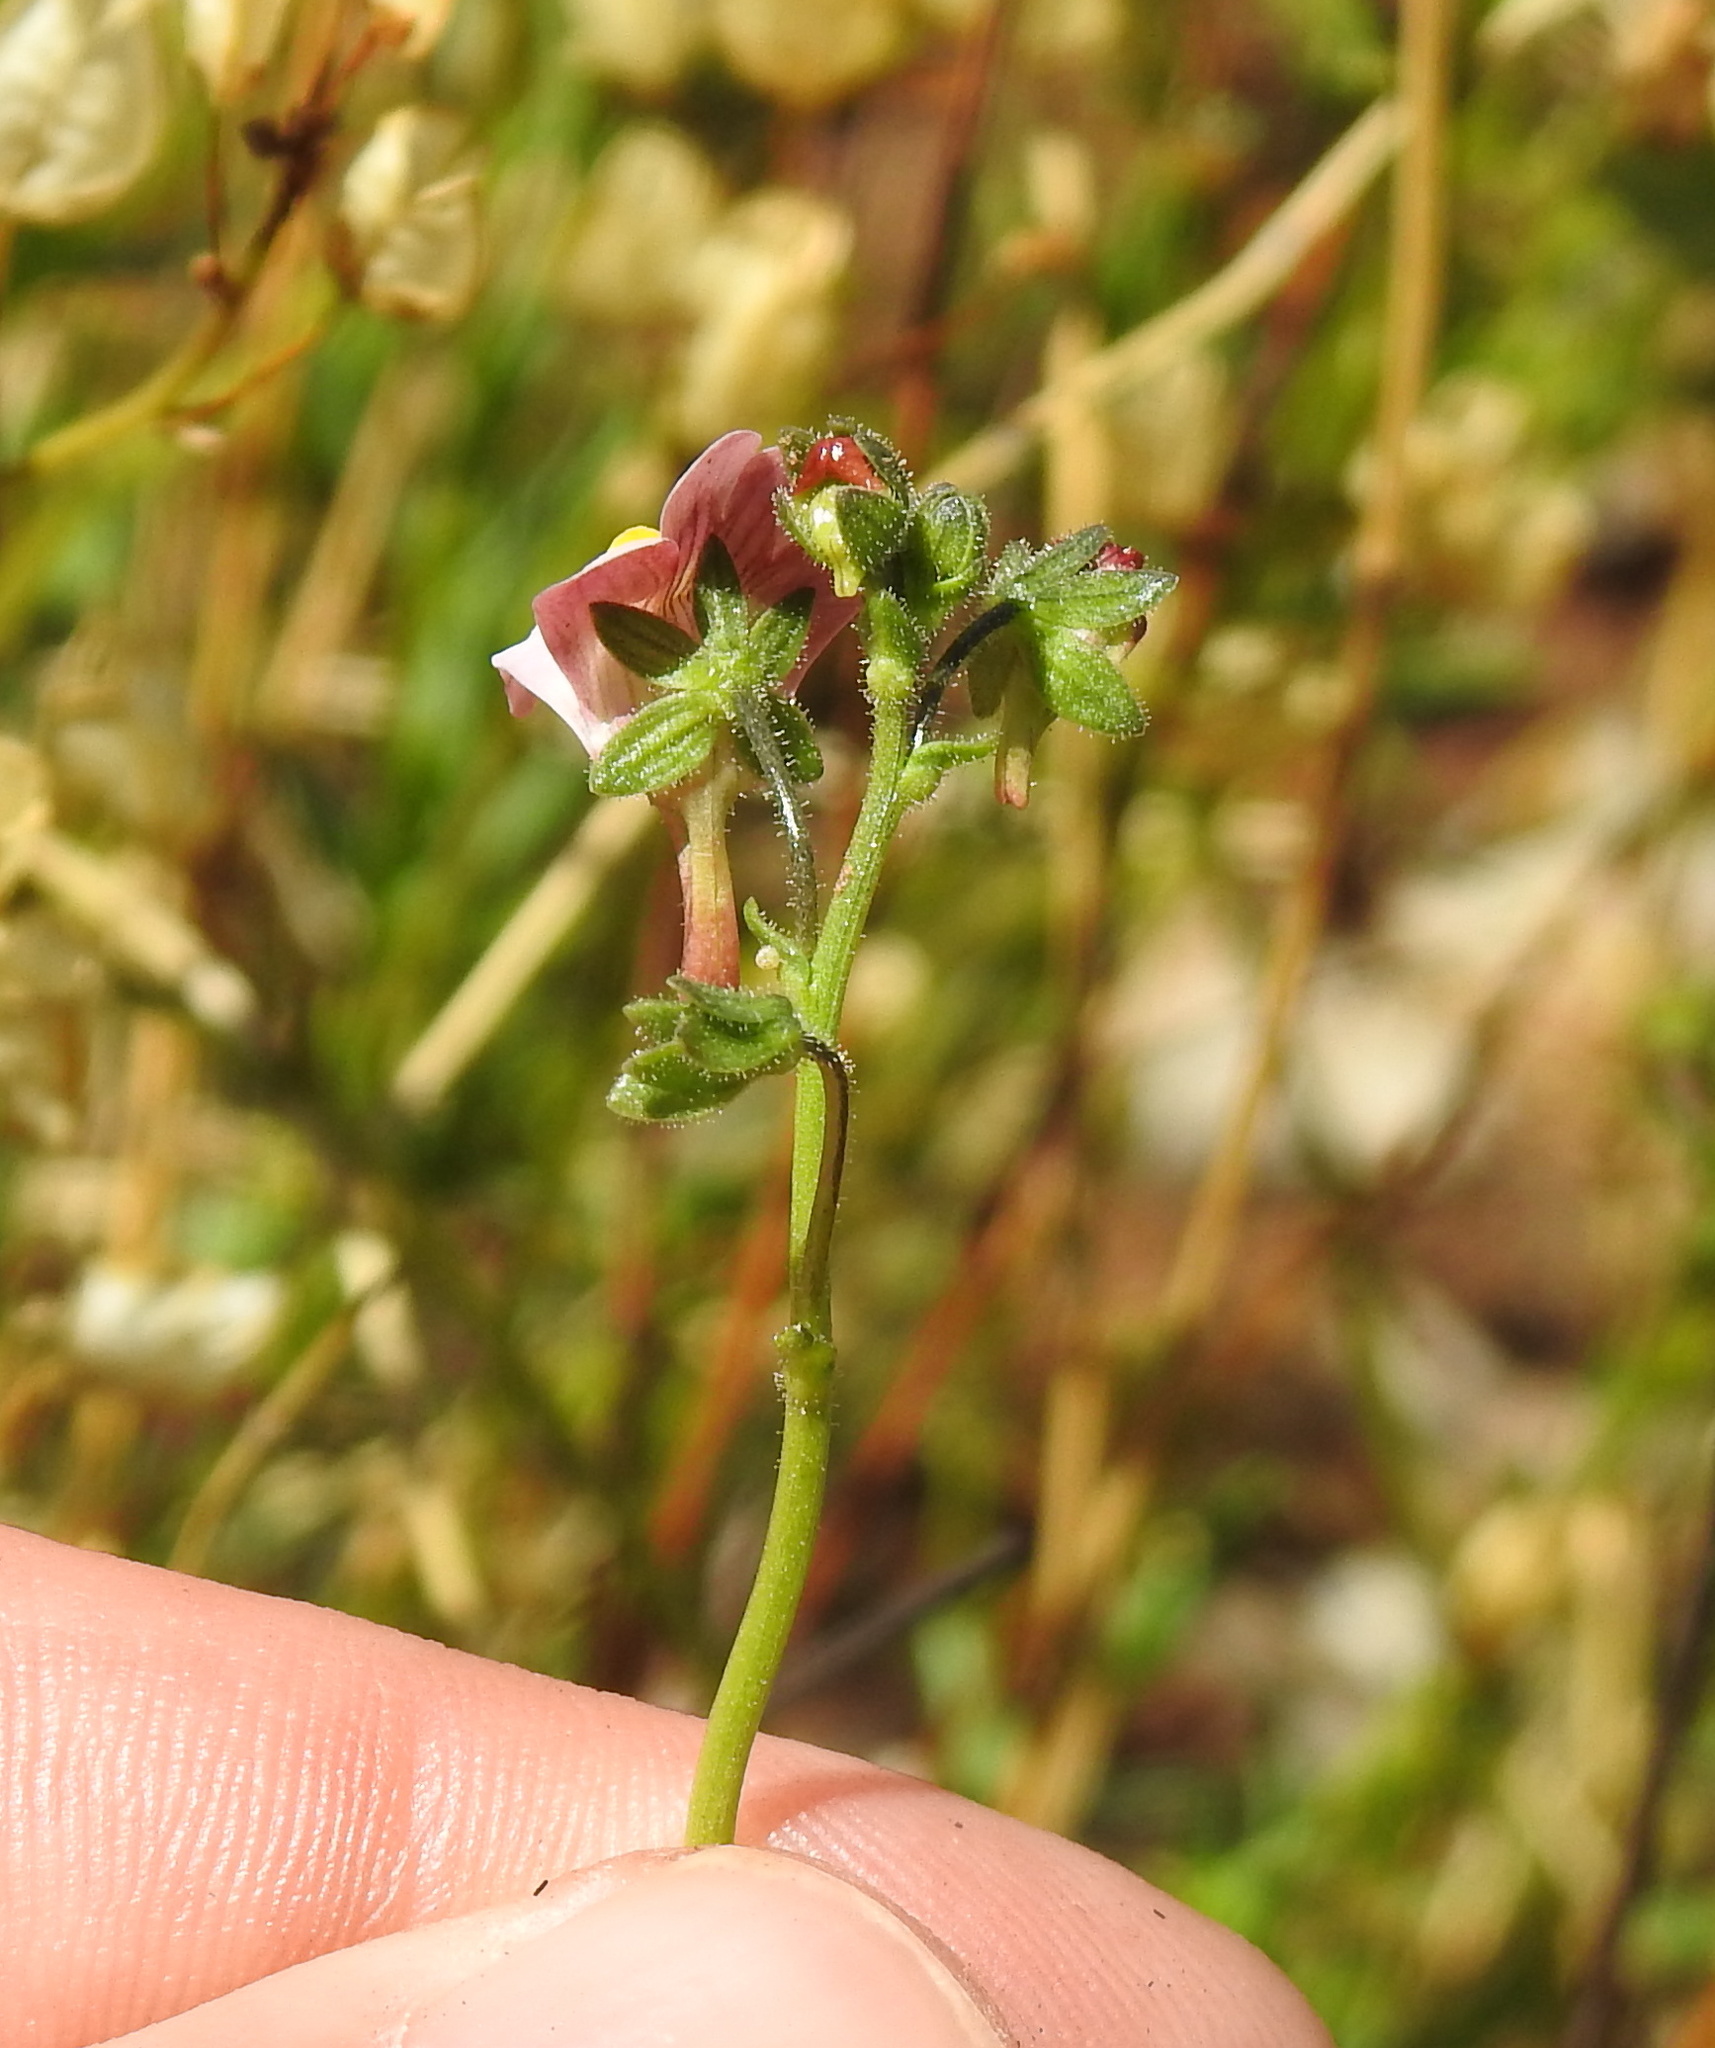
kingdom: Plantae
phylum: Tracheophyta
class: Magnoliopsida
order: Lamiales
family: Scrophulariaceae
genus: Nemesia
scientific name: Nemesia fruticans
